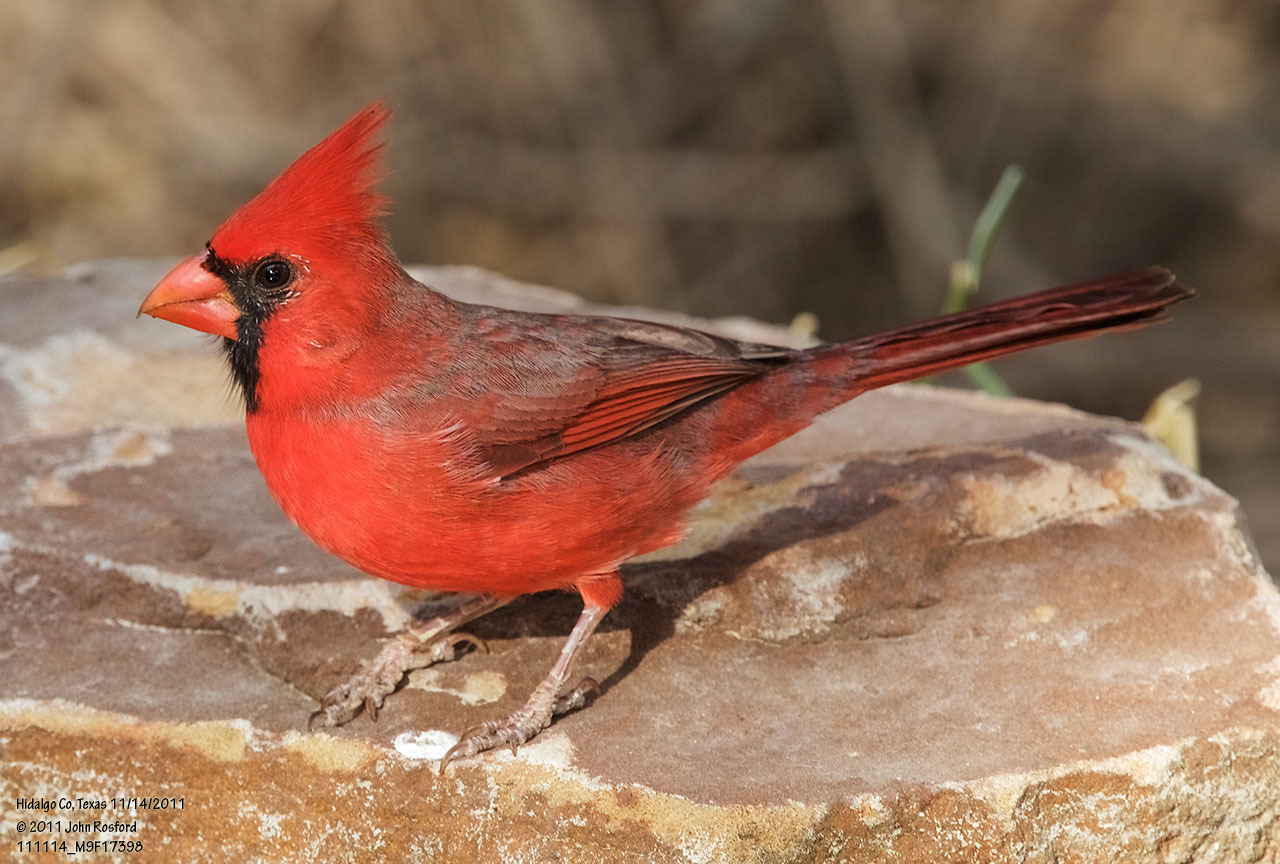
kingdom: Animalia
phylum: Chordata
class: Aves
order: Passeriformes
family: Cardinalidae
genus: Cardinalis
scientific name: Cardinalis cardinalis
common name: Northern cardinal
